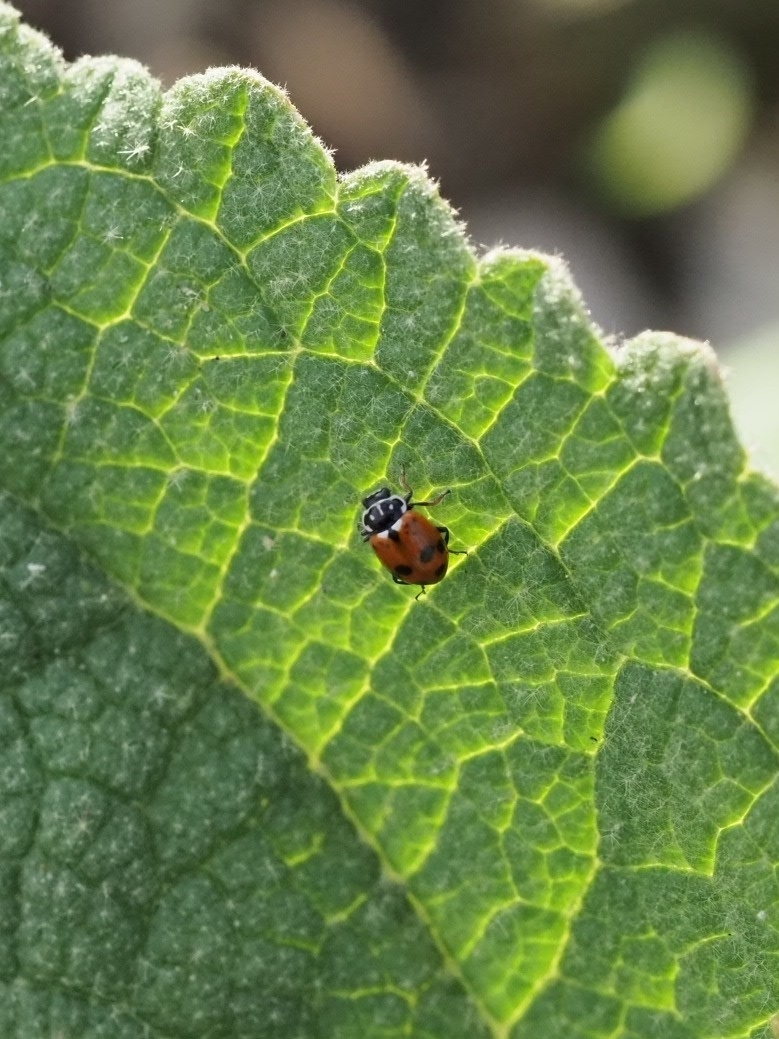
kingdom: Animalia
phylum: Arthropoda
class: Insecta
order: Coleoptera
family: Coccinellidae
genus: Hippodamia
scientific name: Hippodamia variegata
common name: Ladybird beetle
